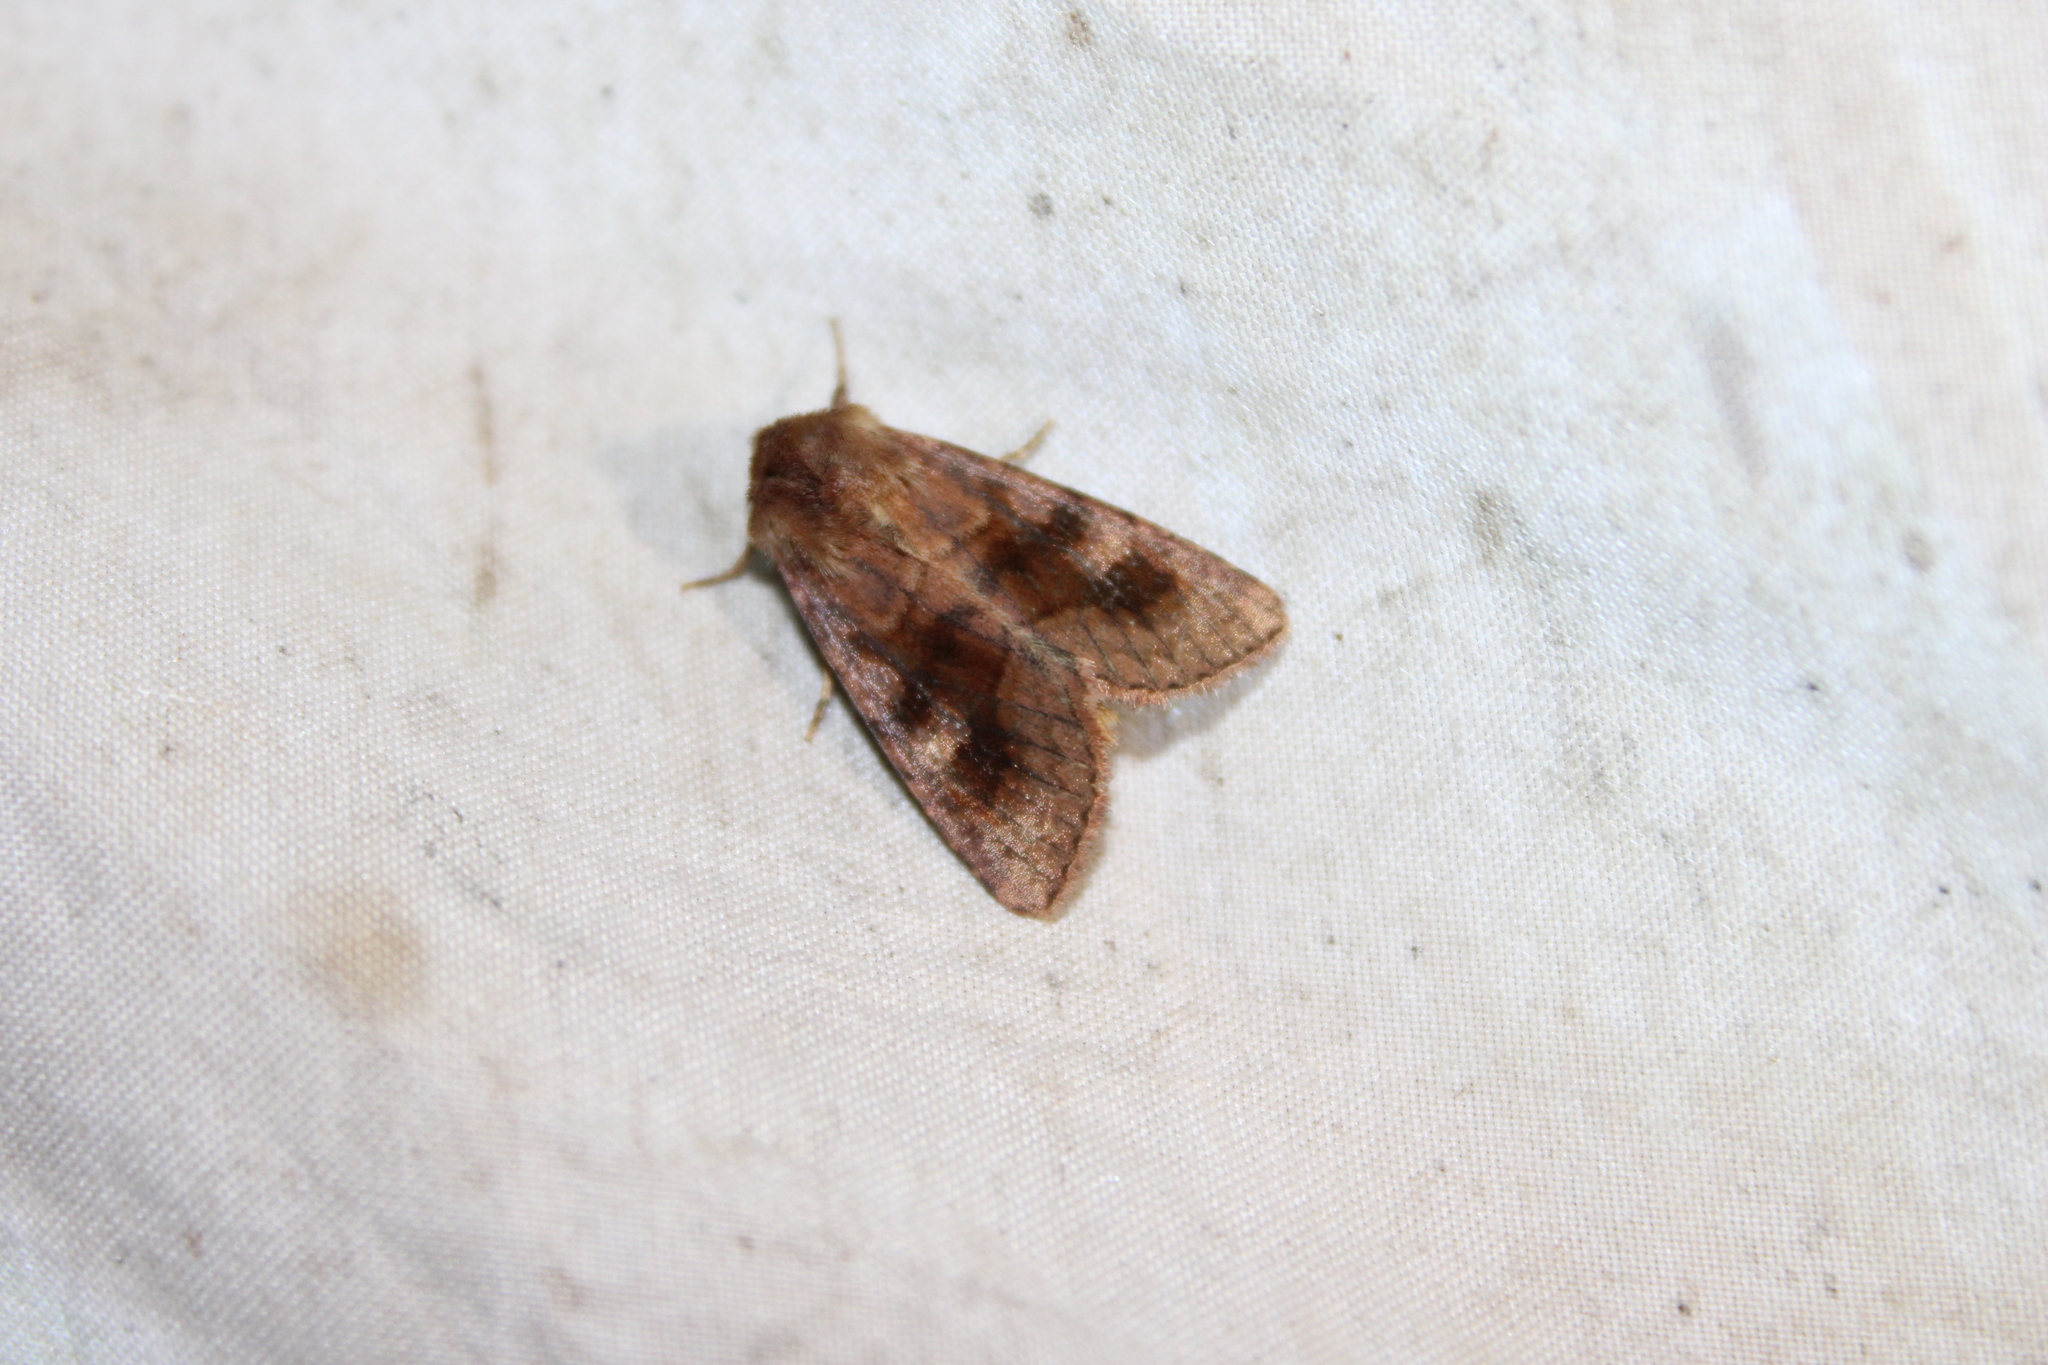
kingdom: Animalia
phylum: Arthropoda
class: Insecta
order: Lepidoptera
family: Noctuidae
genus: Nephelodes
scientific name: Nephelodes minians
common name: Bronzed cutworm
